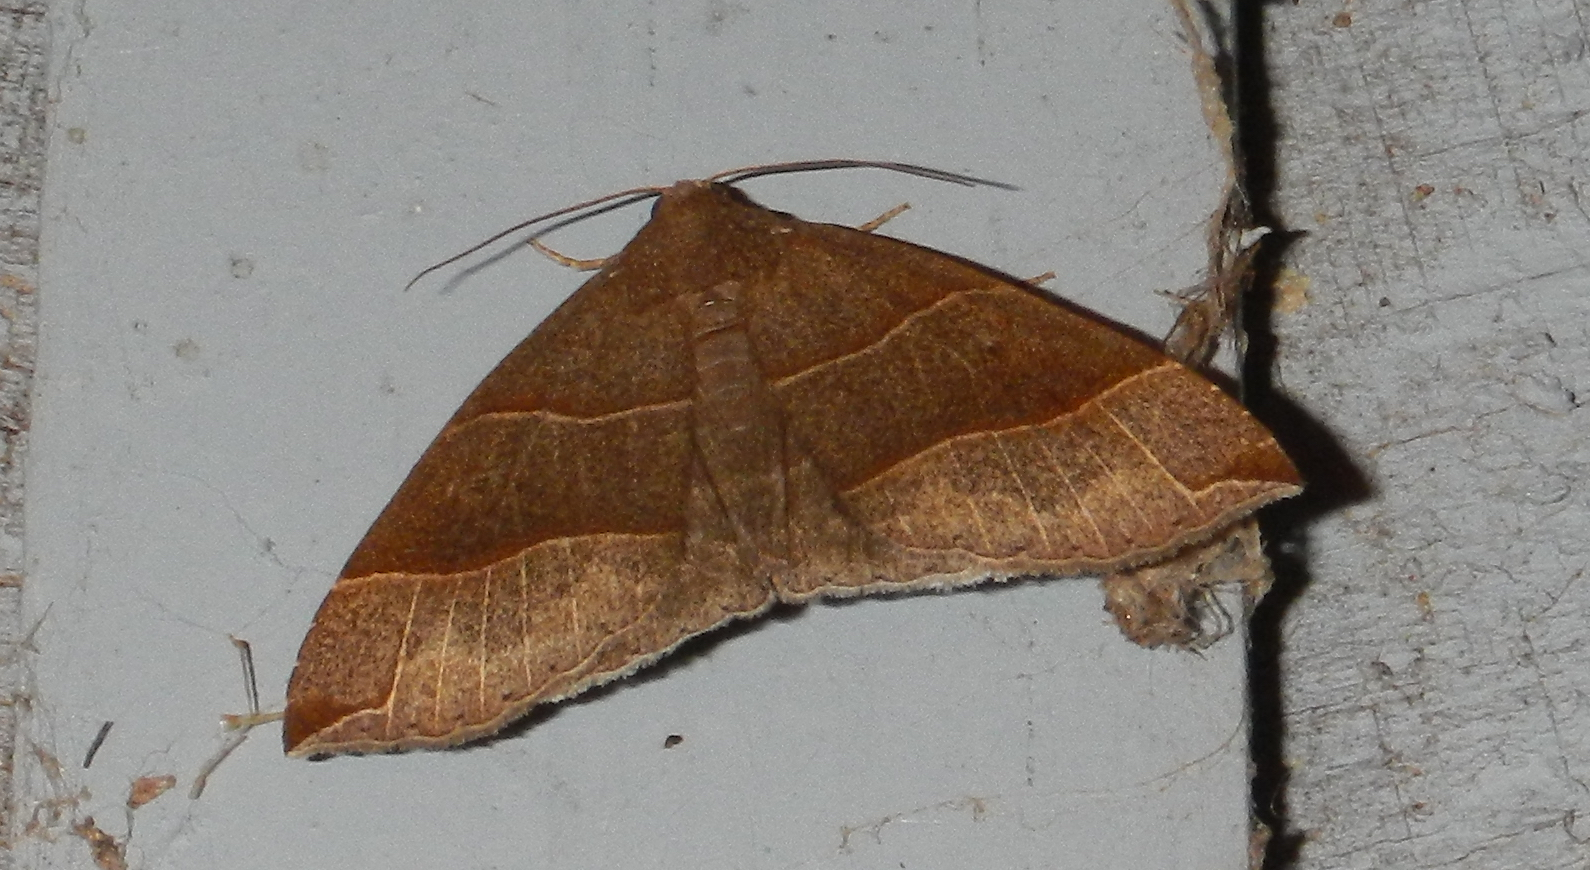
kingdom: Animalia
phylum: Arthropoda
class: Insecta
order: Lepidoptera
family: Erebidae
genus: Parallelia
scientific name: Parallelia bistriaris
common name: Maple looper moth
